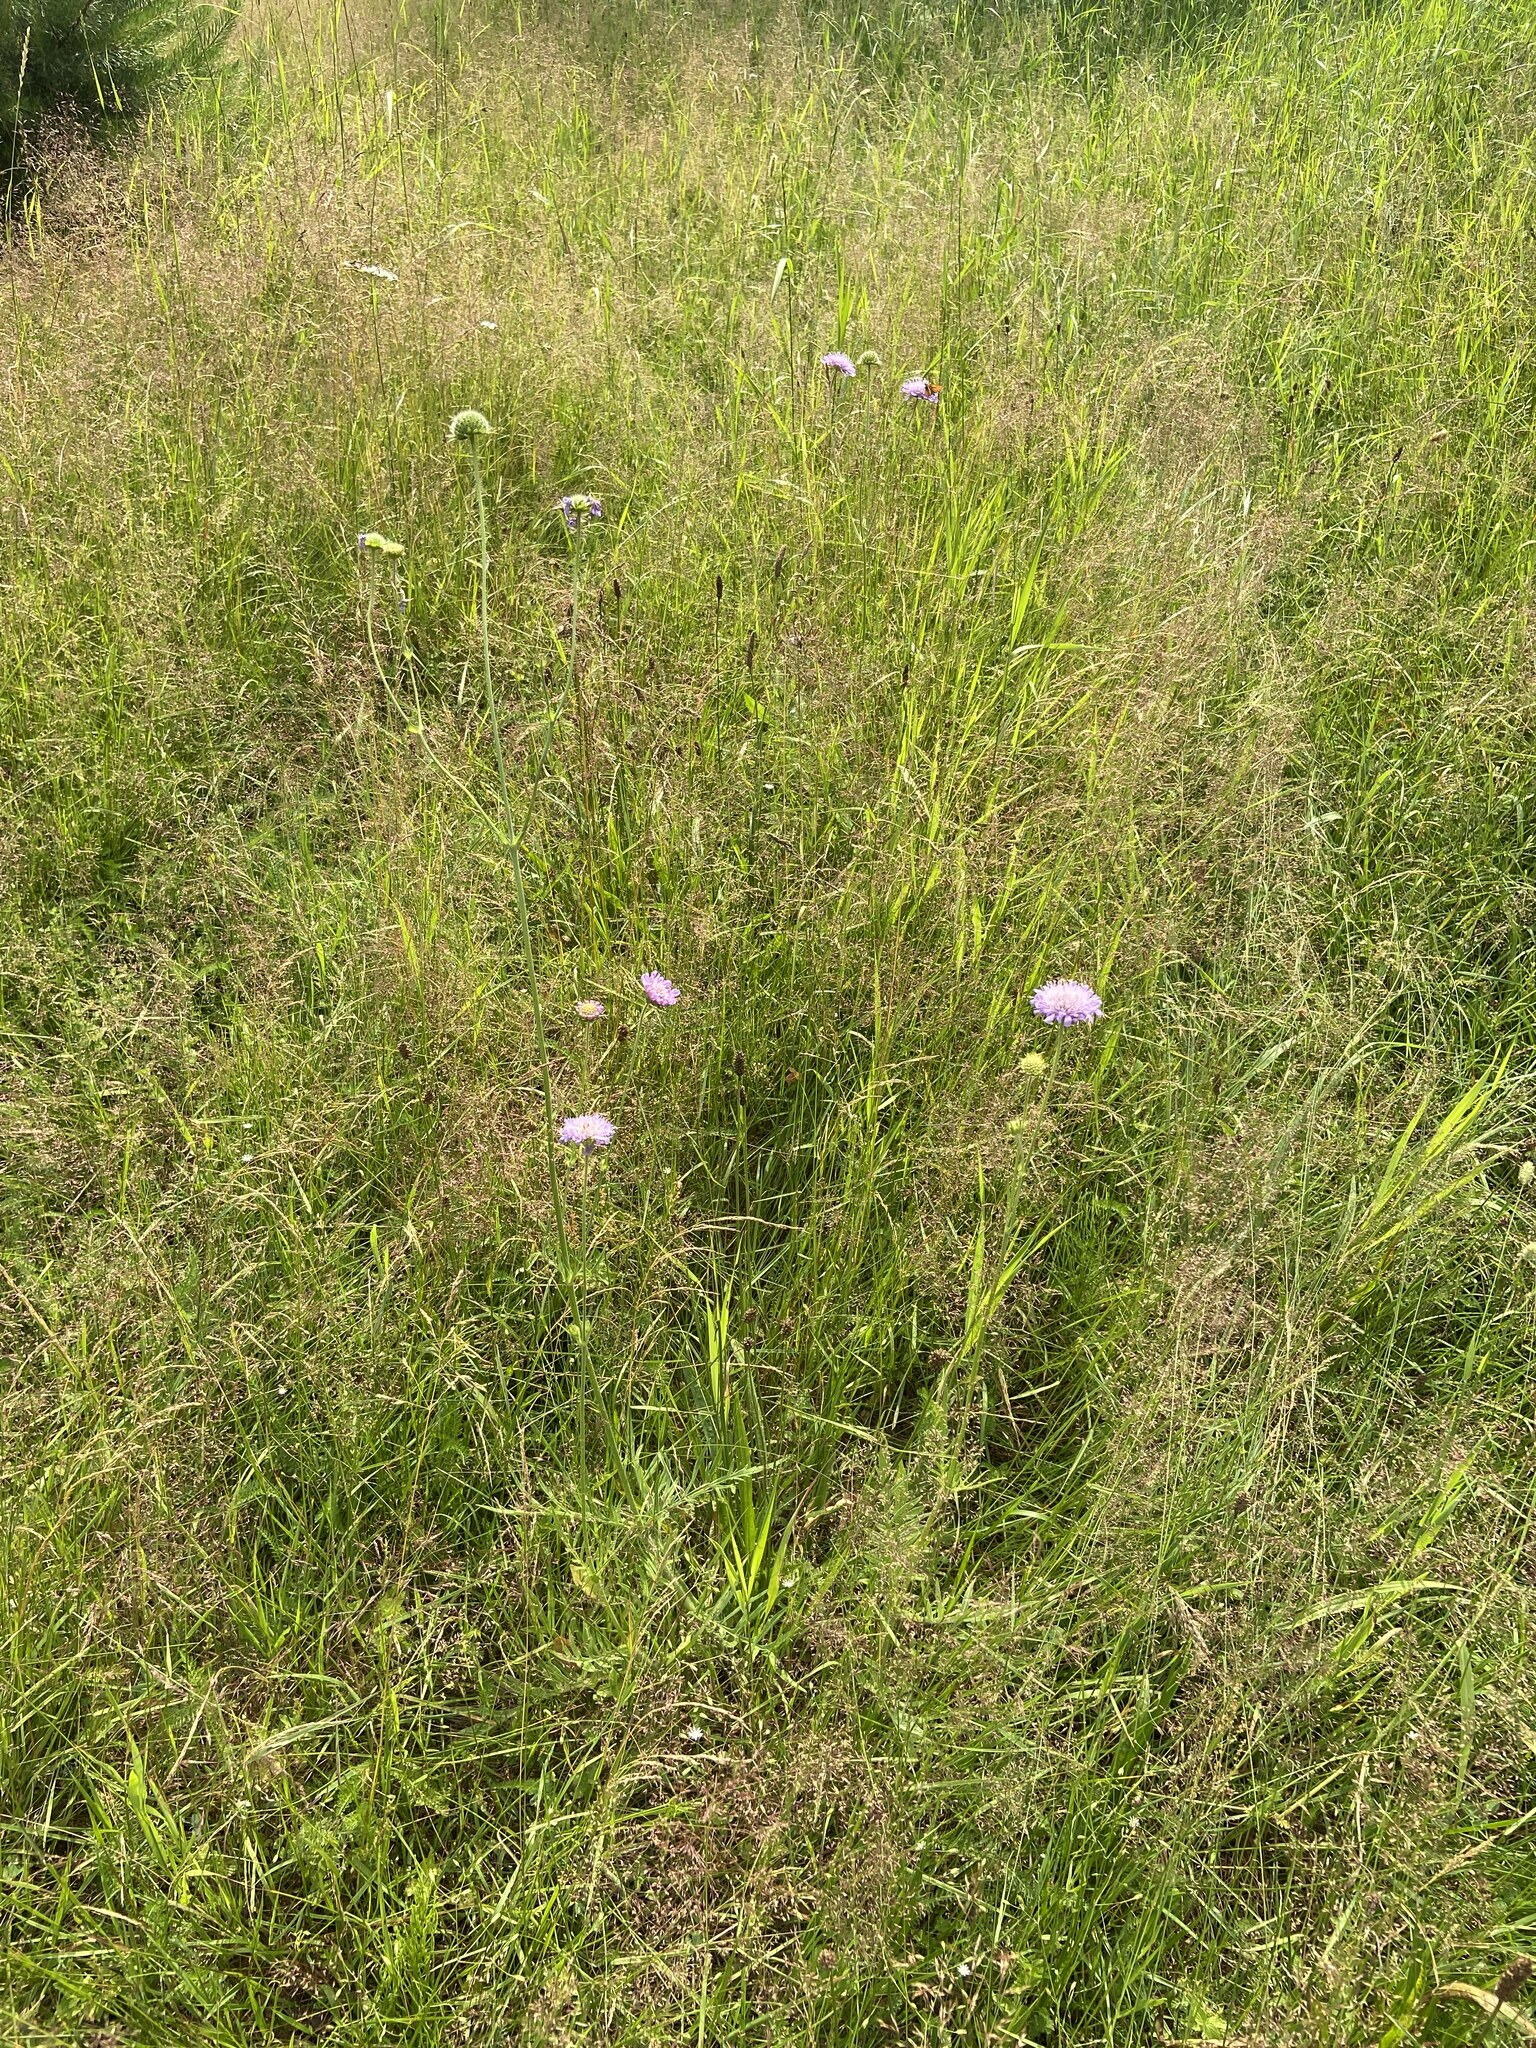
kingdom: Plantae
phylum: Tracheophyta
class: Magnoliopsida
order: Dipsacales
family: Caprifoliaceae
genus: Knautia
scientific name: Knautia arvensis
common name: Field scabiosa
